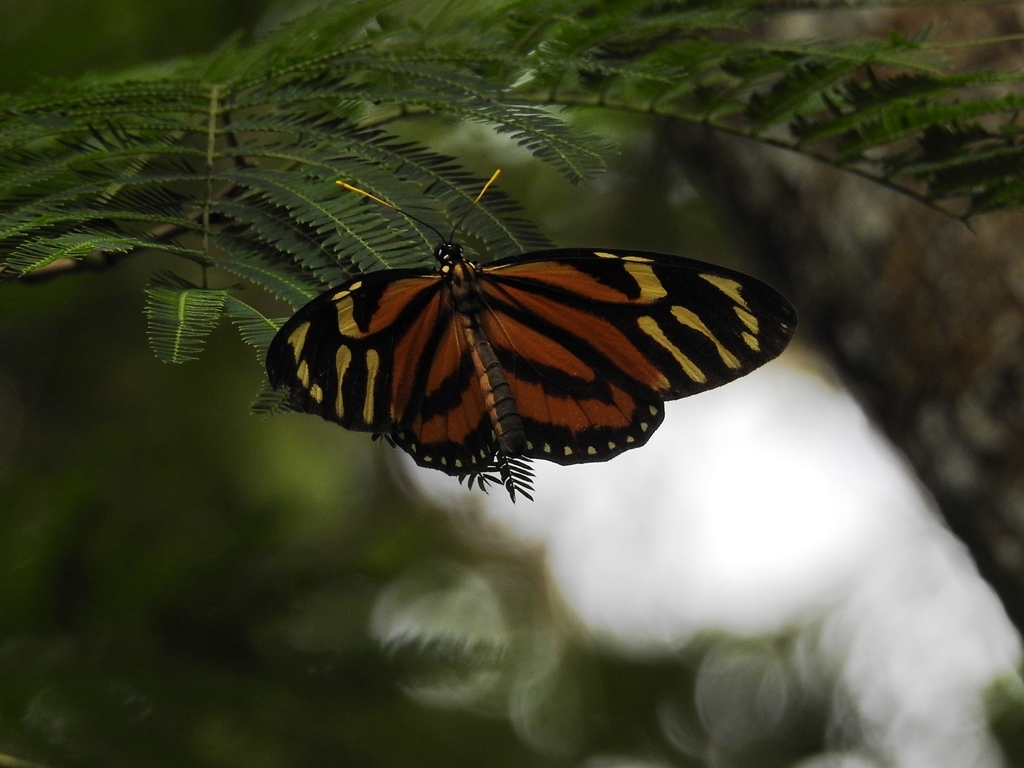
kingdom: Animalia
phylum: Arthropoda
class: Insecta
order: Lepidoptera
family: Nymphalidae
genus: Lycorea
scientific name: Lycorea cleobaea
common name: Tiger mimic-queen
